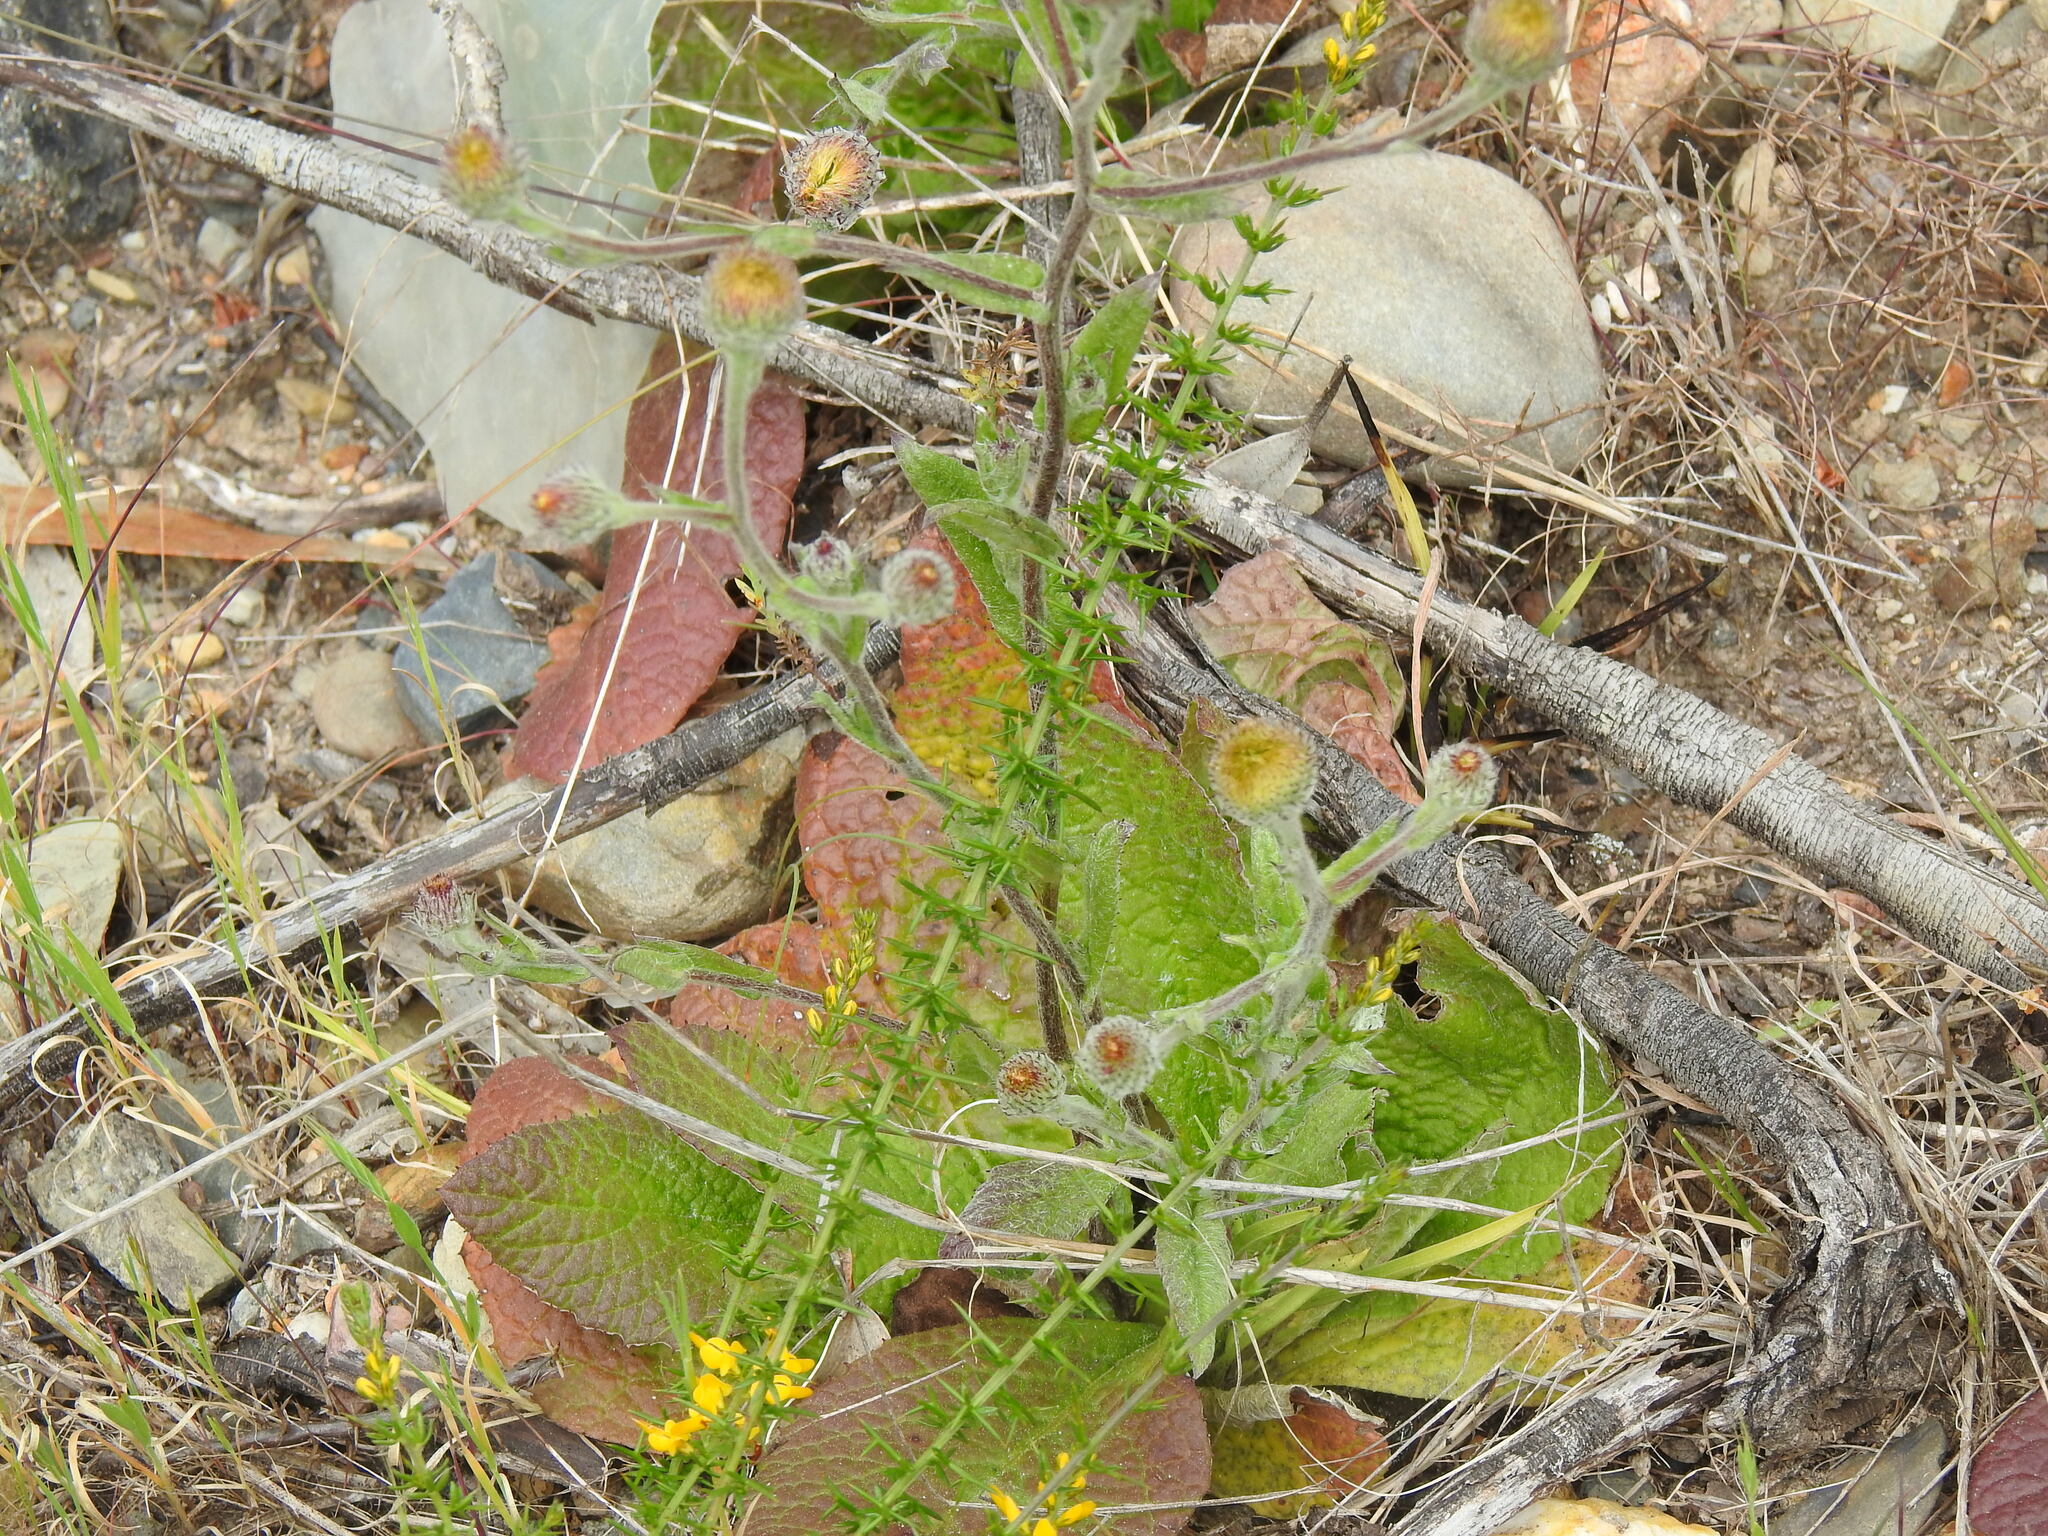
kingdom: Plantae
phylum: Tracheophyta
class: Magnoliopsida
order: Asterales
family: Asteraceae
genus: Pulicaria
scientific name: Pulicaria odora
